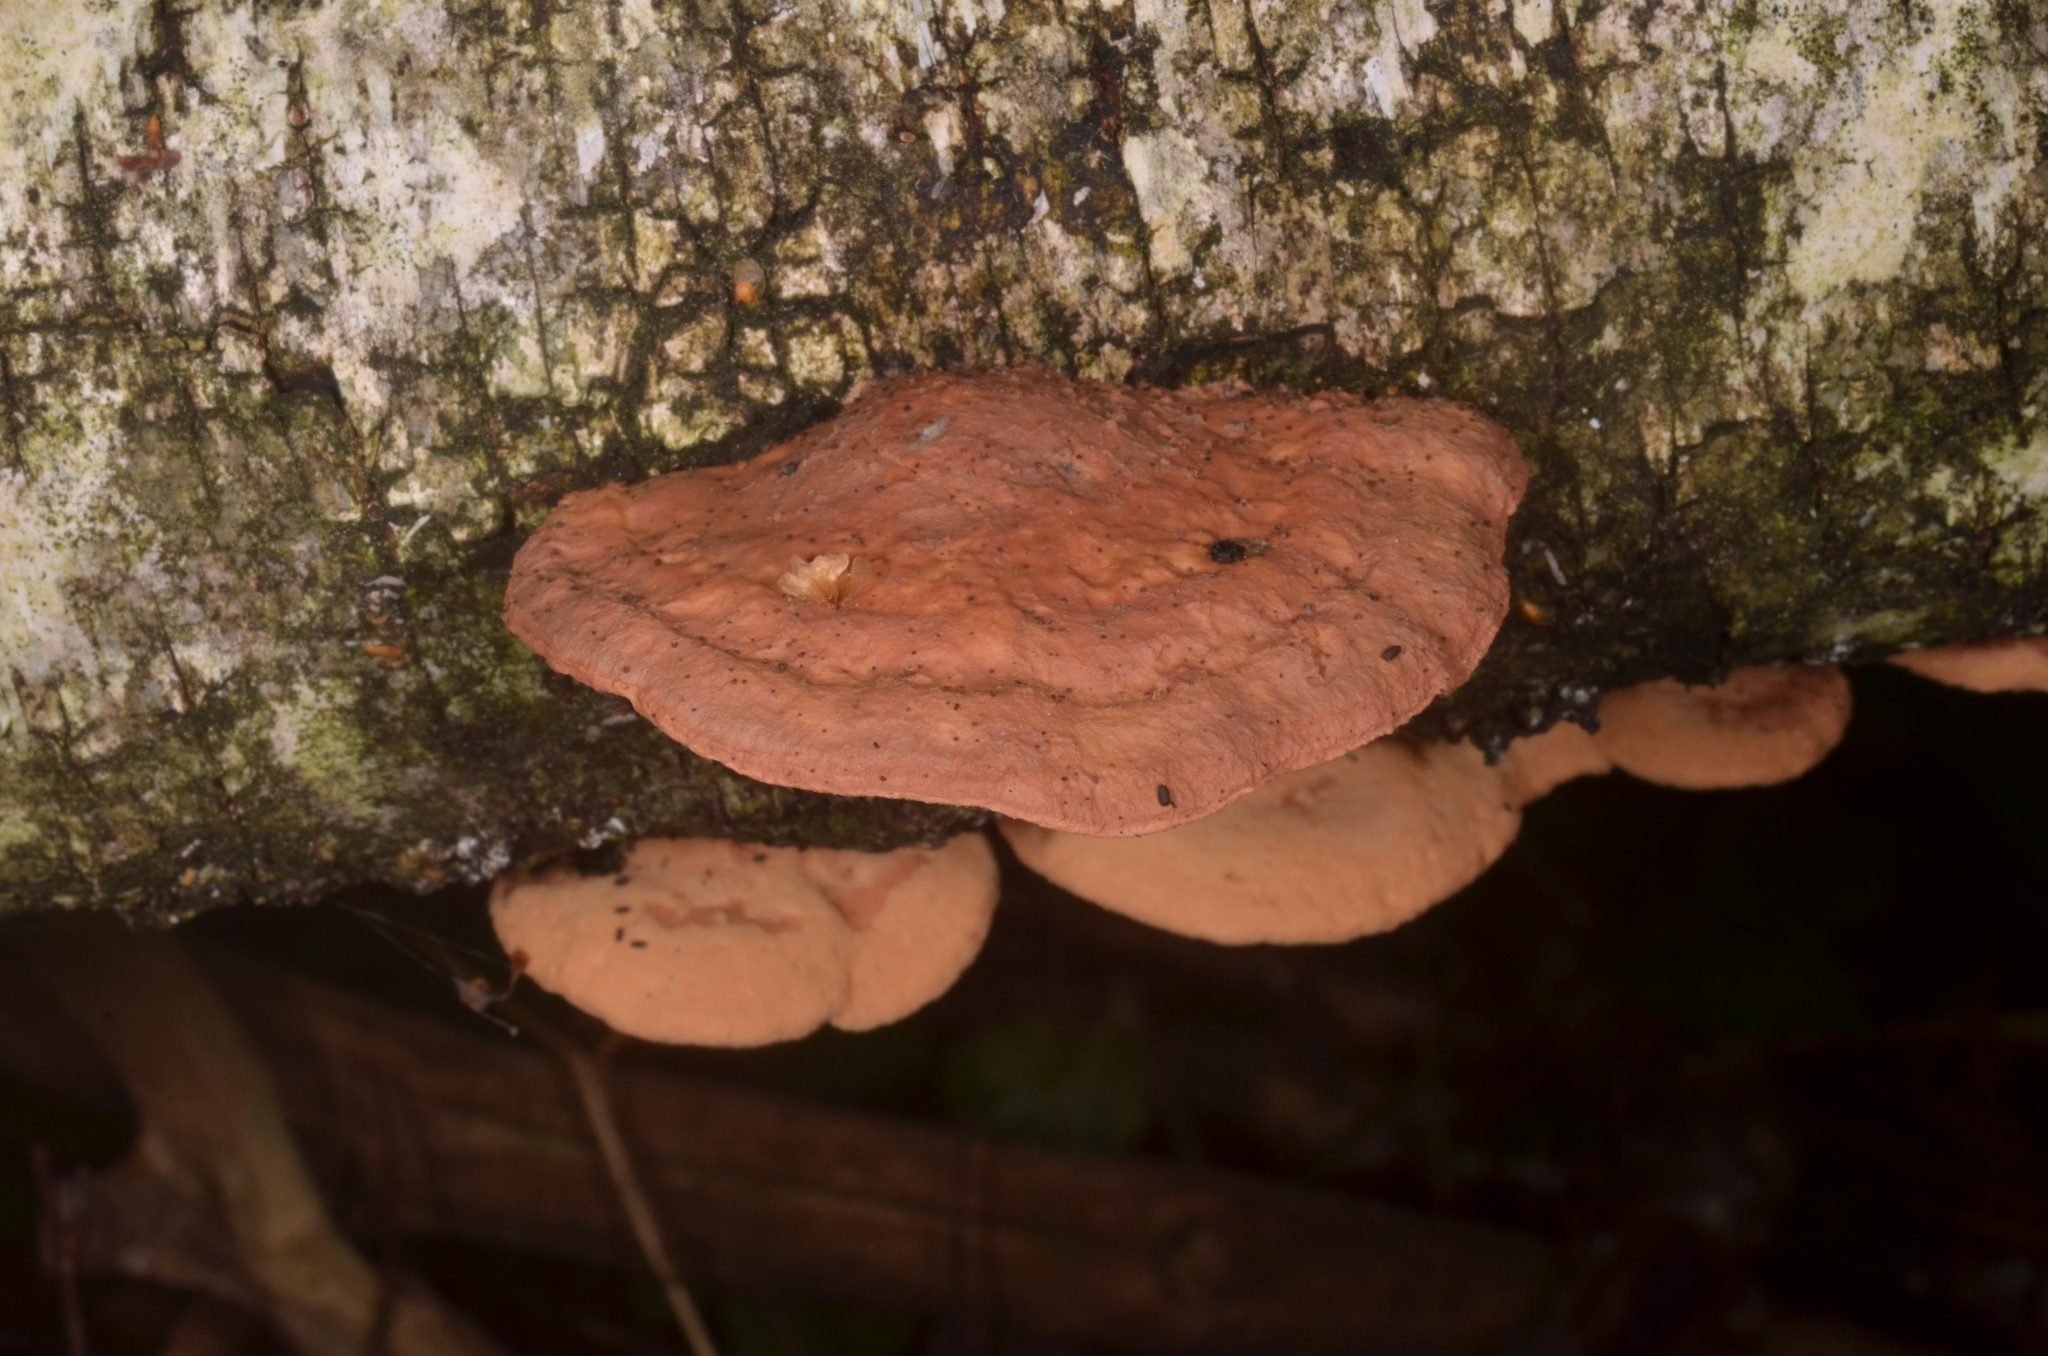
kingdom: Fungi
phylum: Basidiomycota
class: Agaricomycetes
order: Polyporales
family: Phanerochaetaceae
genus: Hapalopilus
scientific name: Hapalopilus rutilans
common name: Tender nesting polypore
